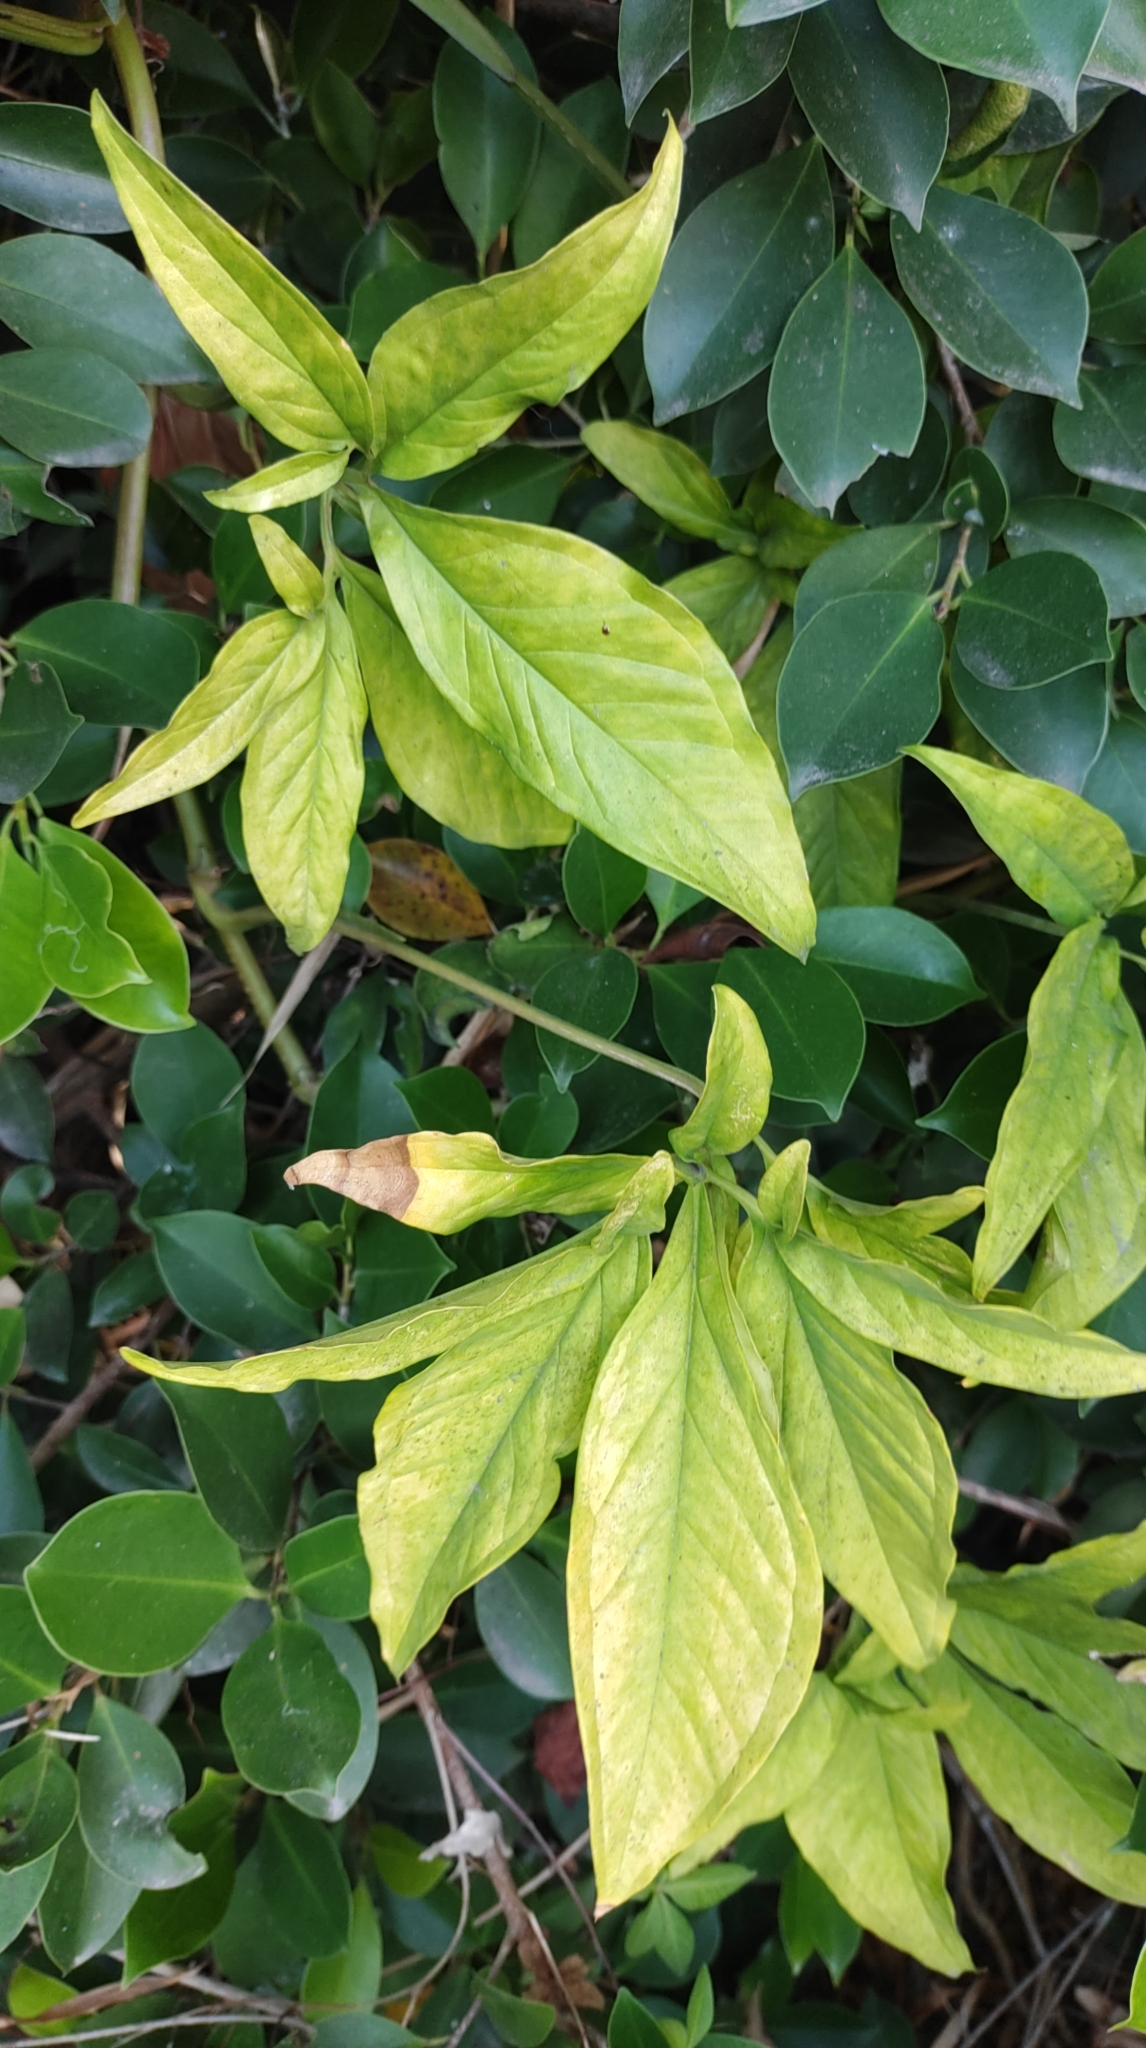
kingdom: Plantae
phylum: Tracheophyta
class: Liliopsida
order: Alismatales
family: Araceae
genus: Syngonium
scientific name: Syngonium angustatum
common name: Fivefingers
